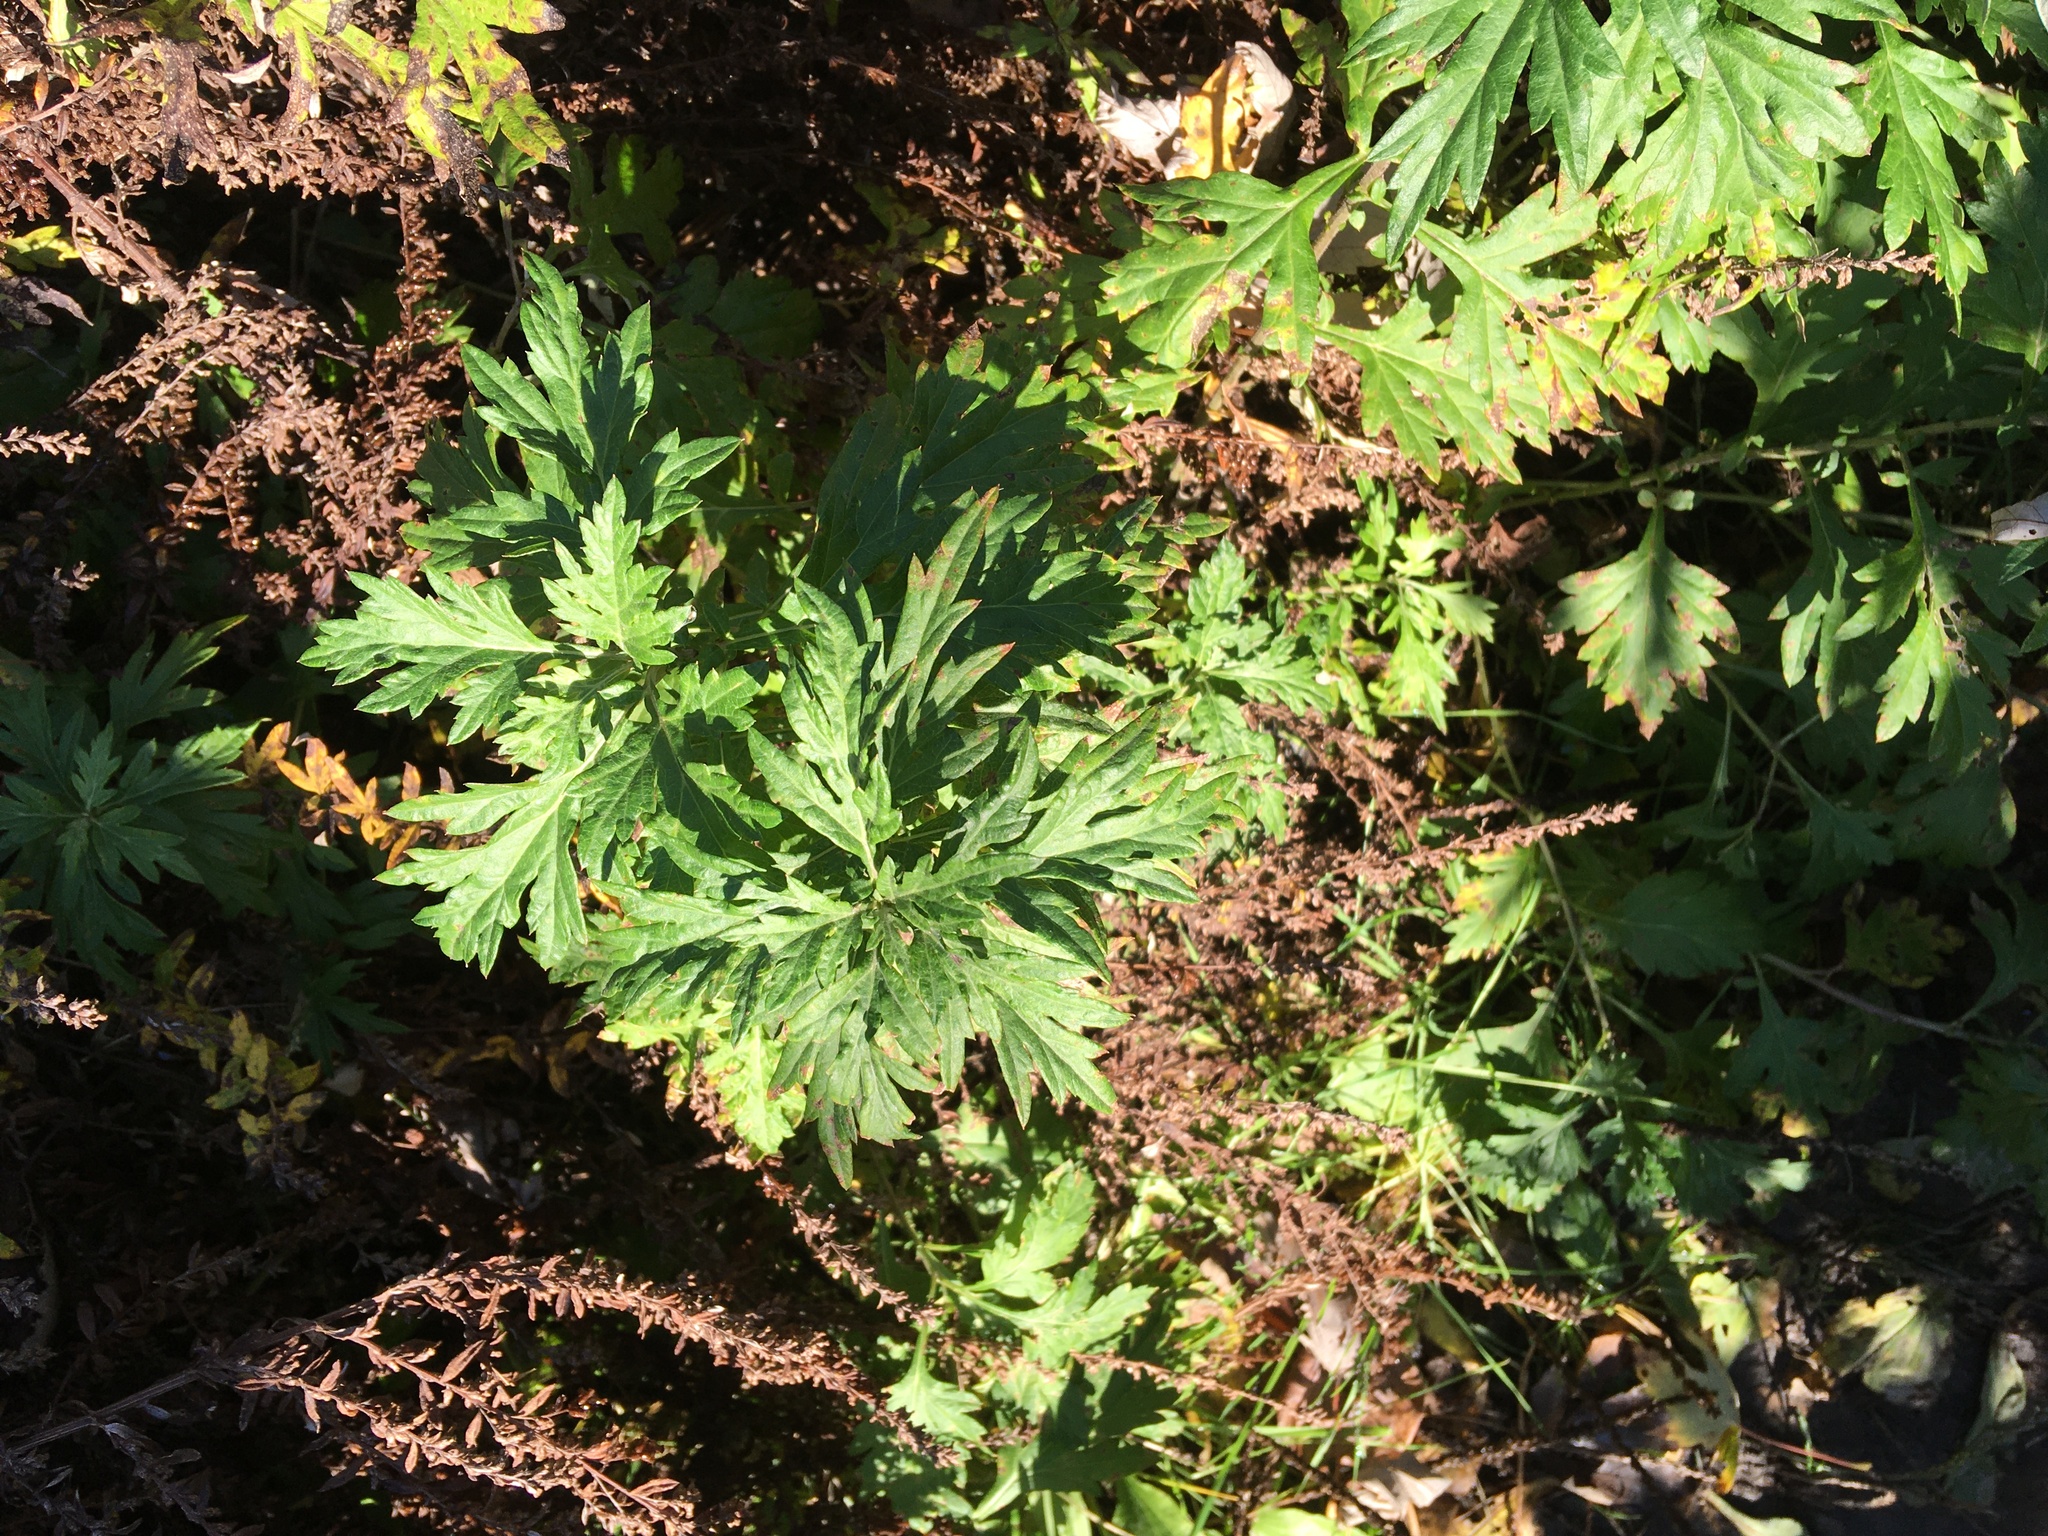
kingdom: Plantae
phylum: Tracheophyta
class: Magnoliopsida
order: Asterales
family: Asteraceae
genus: Artemisia
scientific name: Artemisia vulgaris
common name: Mugwort
